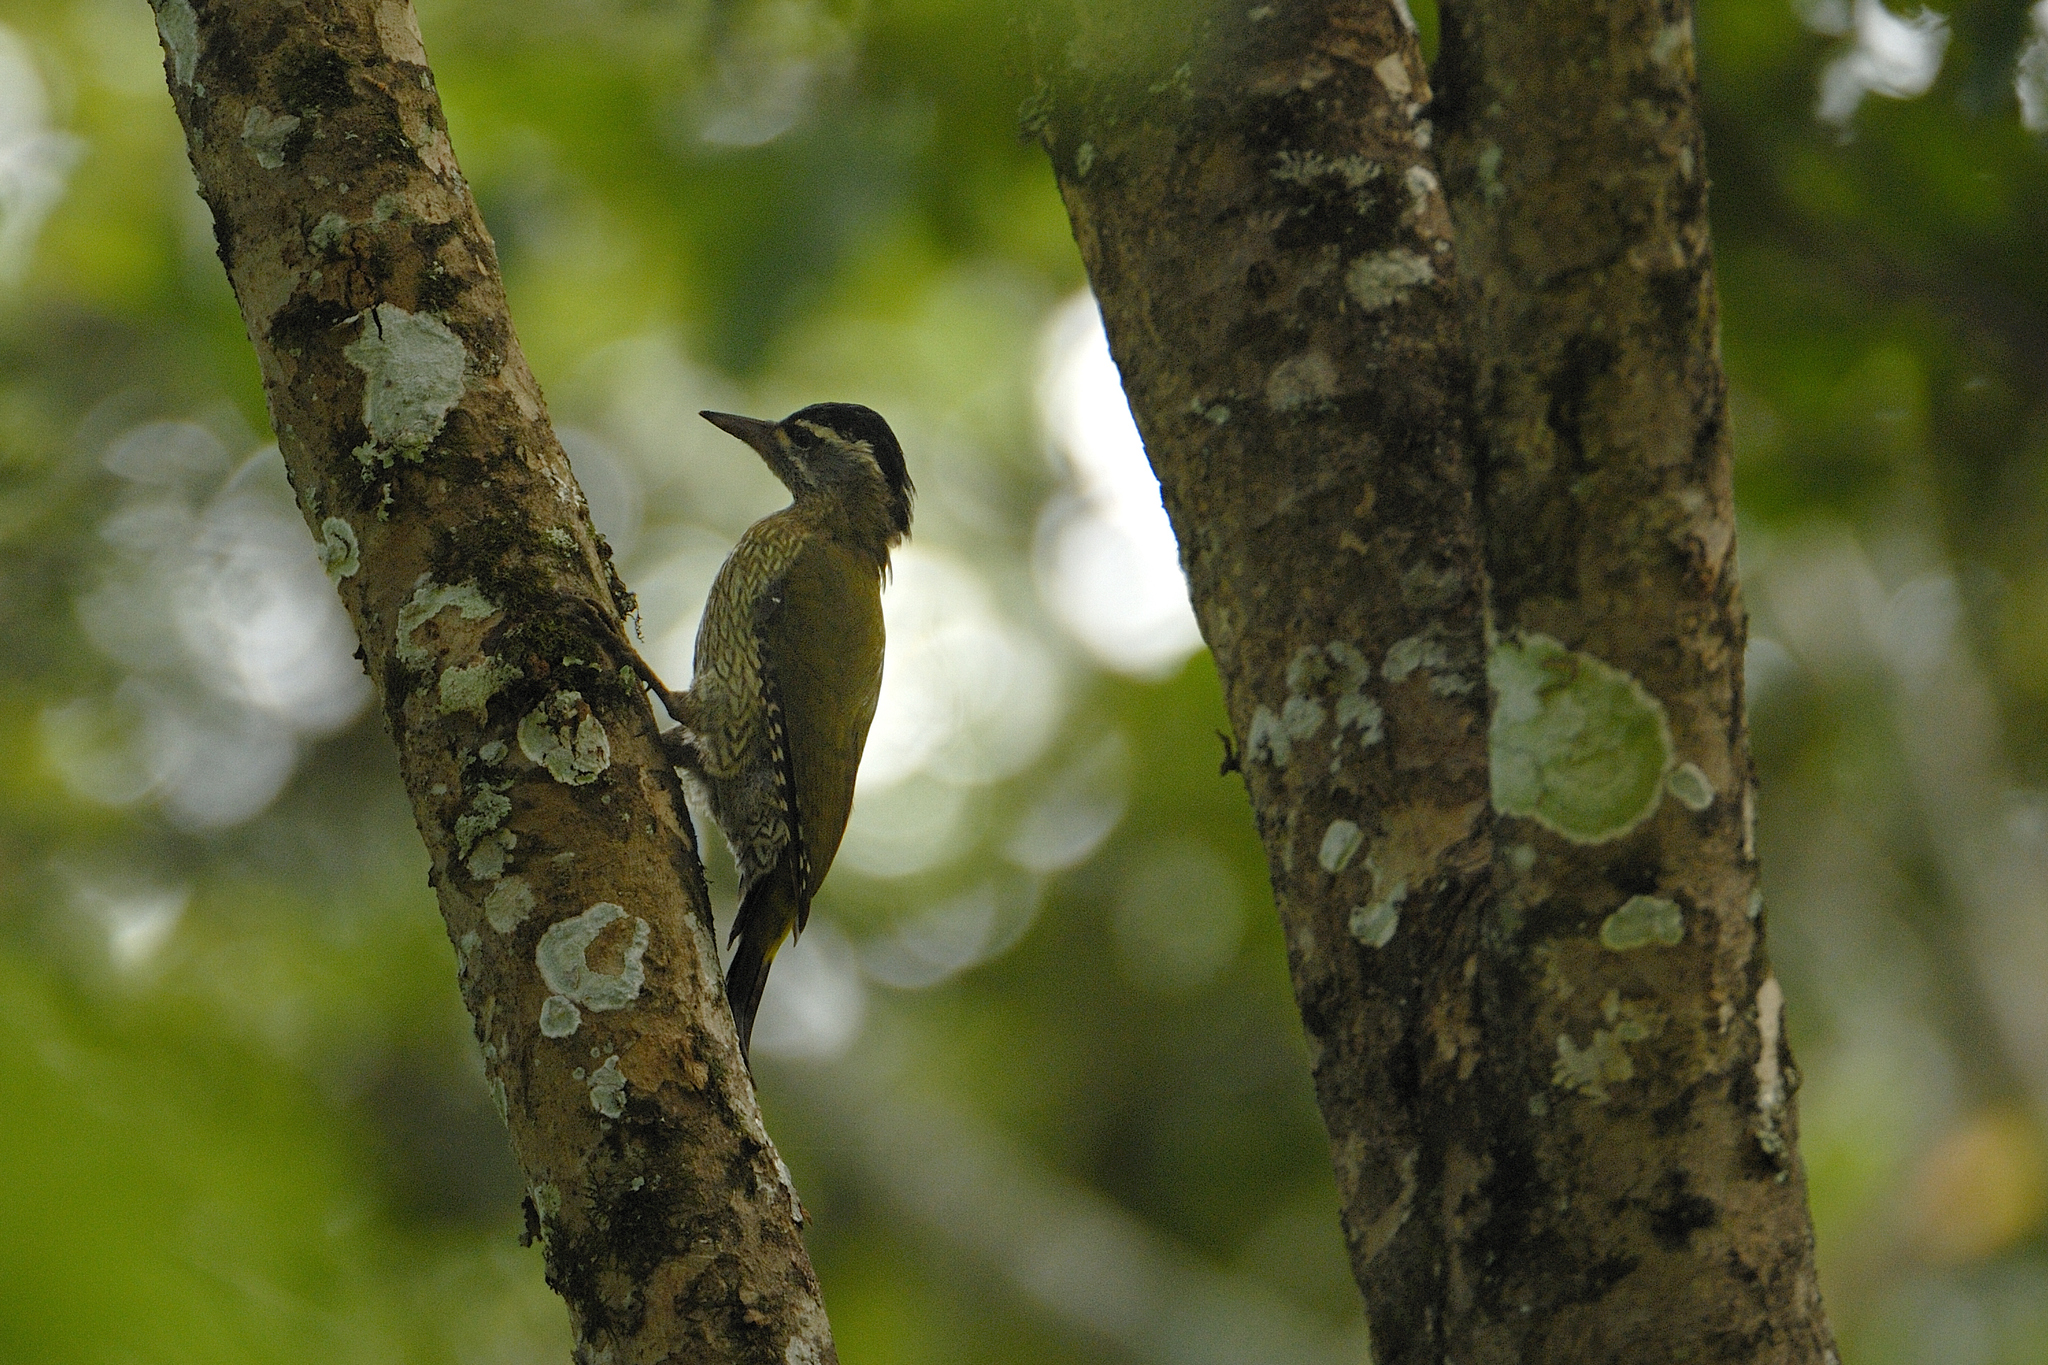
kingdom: Animalia
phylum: Chordata
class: Aves
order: Piciformes
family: Picidae
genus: Picus
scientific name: Picus xanthopygaeus
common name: Streak-throated woodpecker
